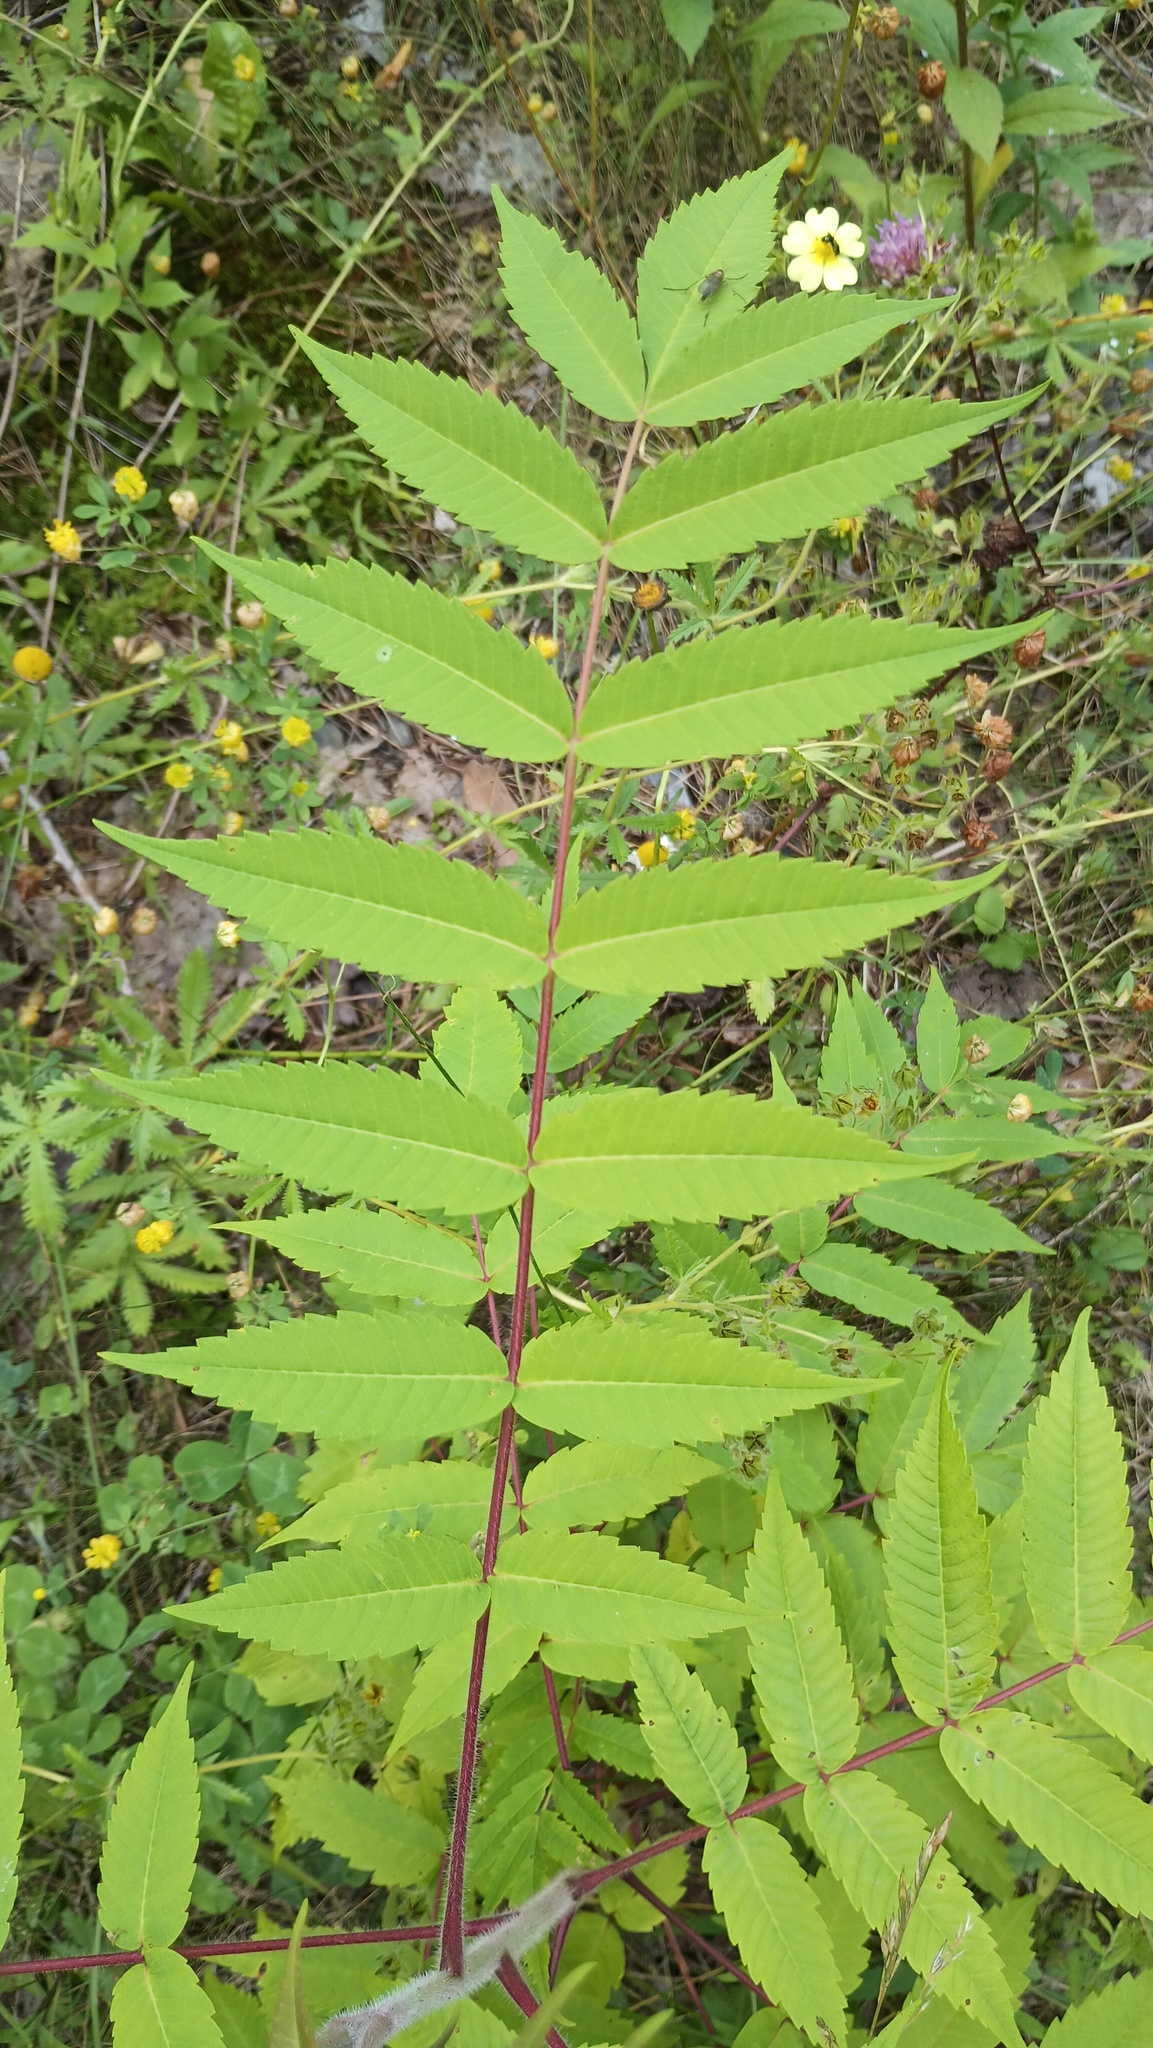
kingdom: Plantae
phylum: Tracheophyta
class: Magnoliopsida
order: Sapindales
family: Anacardiaceae
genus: Rhus
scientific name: Rhus typhina
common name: Staghorn sumac
